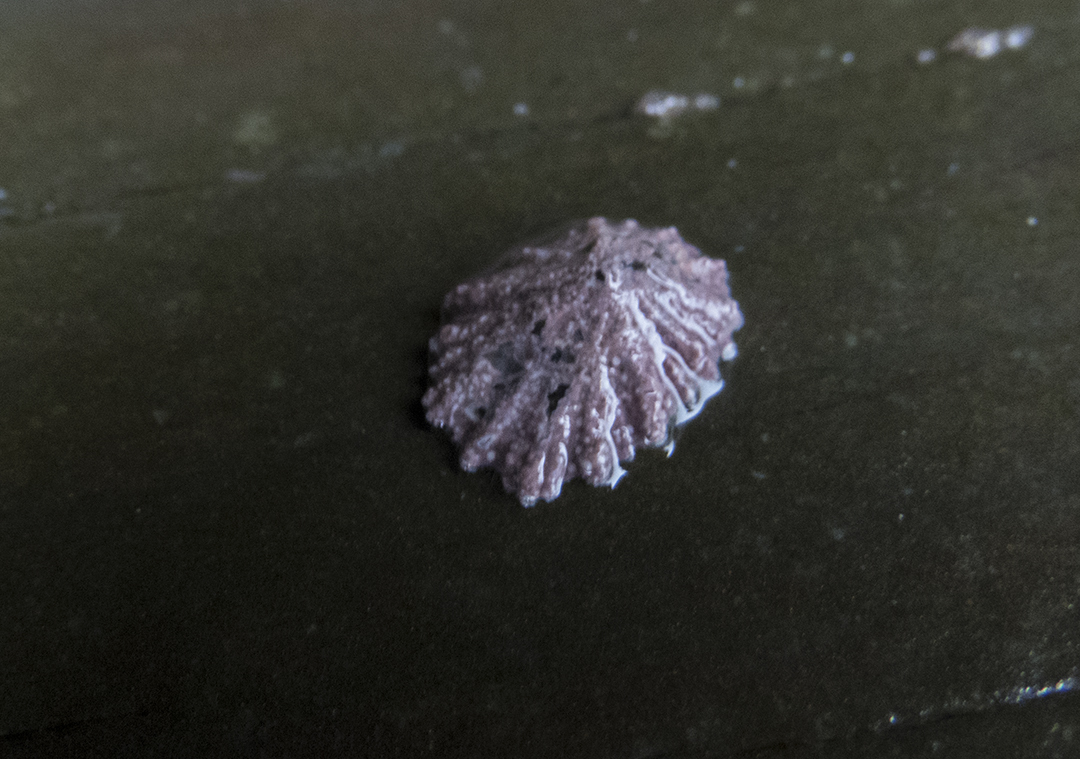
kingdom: Animalia
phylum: Mollusca
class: Gastropoda
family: Lottiidae
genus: Patelloida
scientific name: Patelloida corticata
